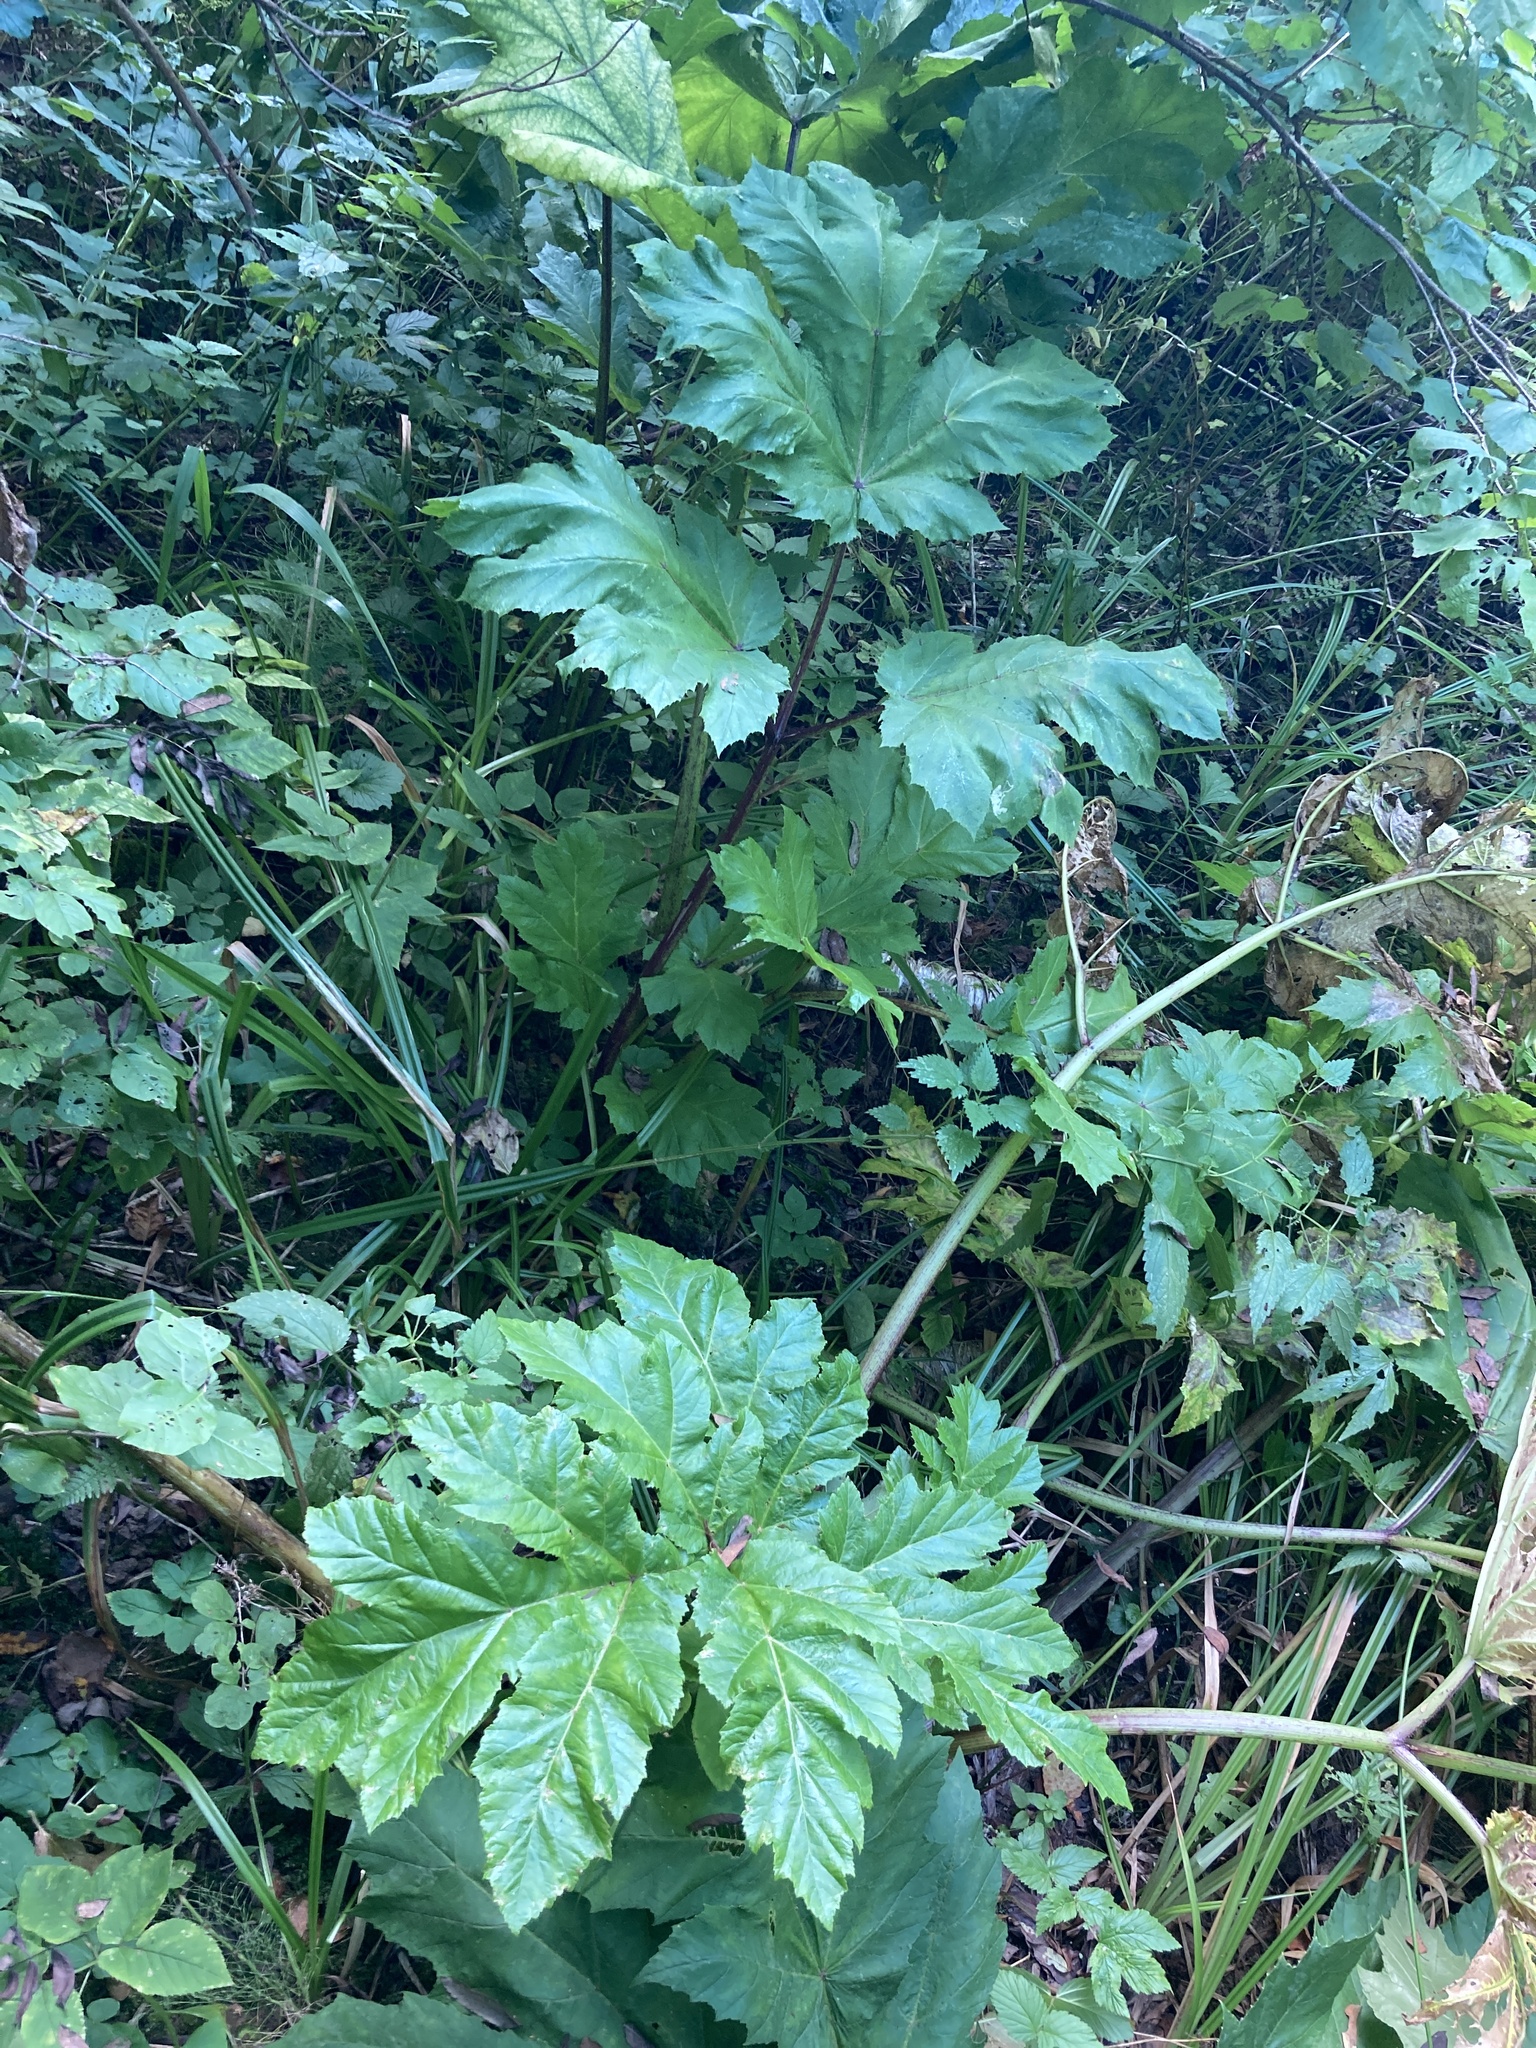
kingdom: Plantae
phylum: Tracheophyta
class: Magnoliopsida
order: Apiales
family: Apiaceae
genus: Heracleum
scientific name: Heracleum sosnowskyi
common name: Sosnowsky's hogweed
